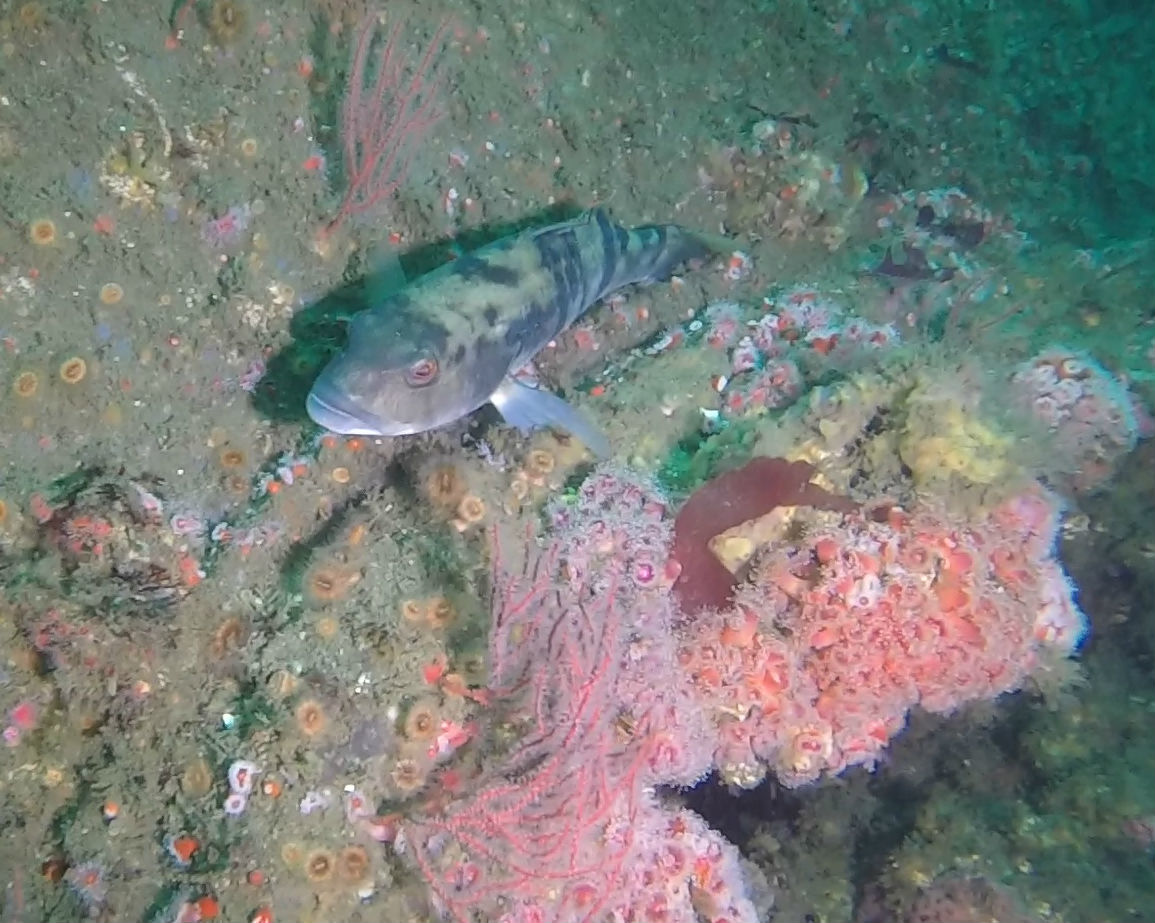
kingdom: Animalia
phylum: Chordata
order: Perciformes
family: Serranidae
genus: Paralabrax
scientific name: Paralabrax nebulifer
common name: Barred sand bass
